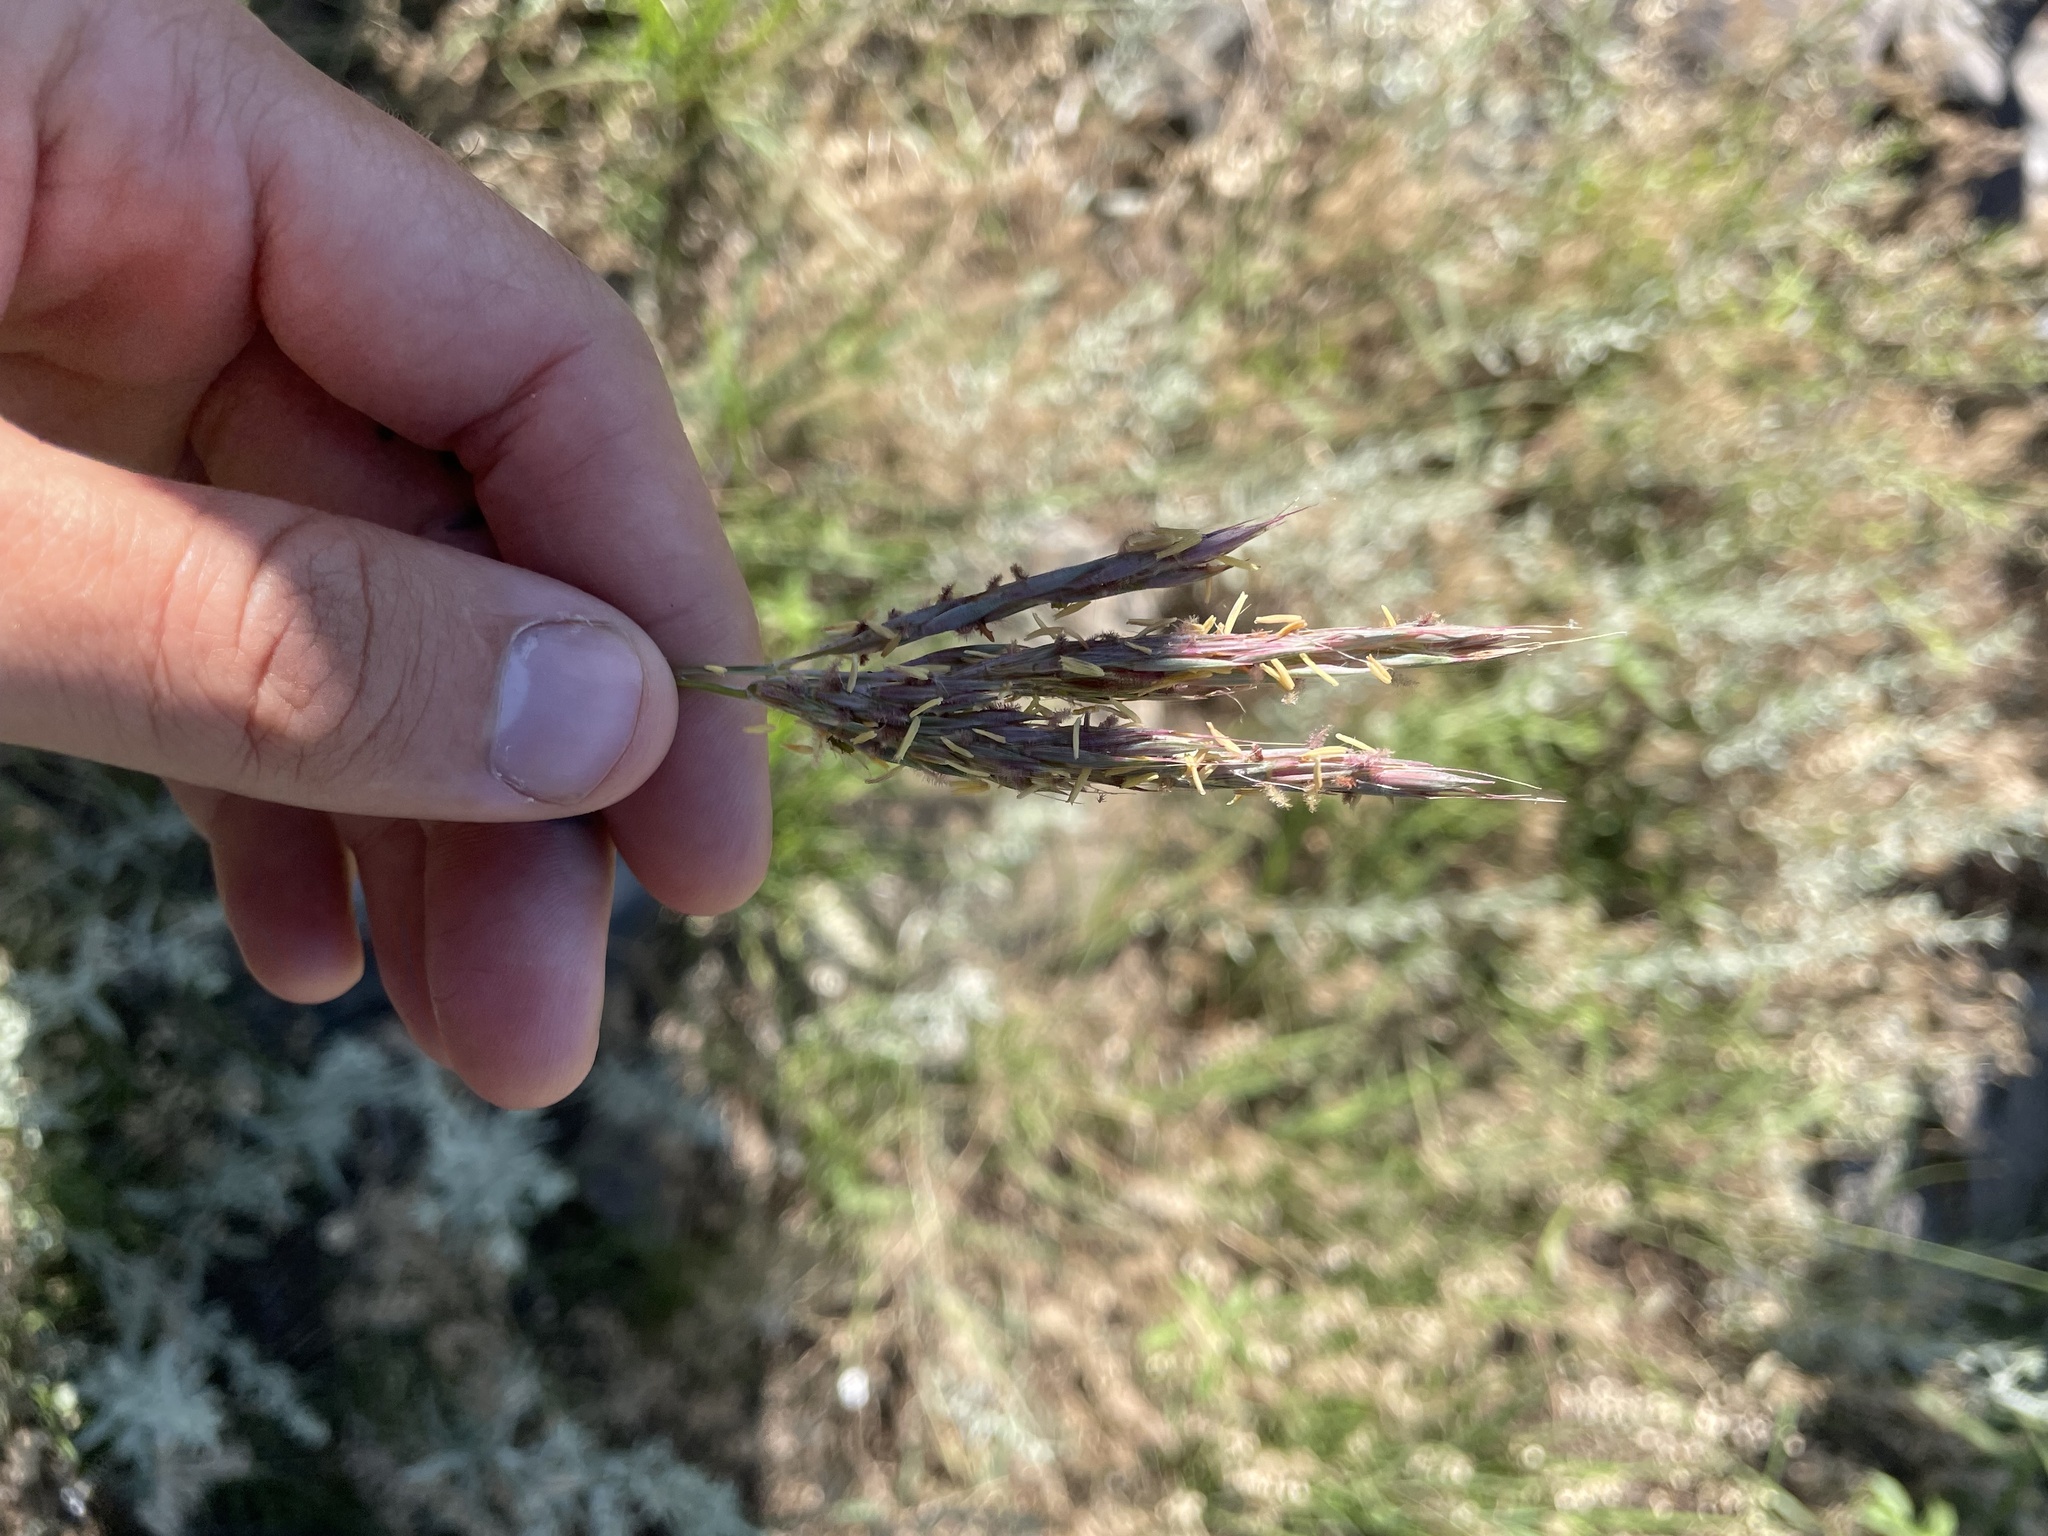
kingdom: Plantae
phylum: Tracheophyta
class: Liliopsida
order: Poales
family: Poaceae
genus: Andropogon
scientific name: Andropogon gerardi
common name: Big bluestem
